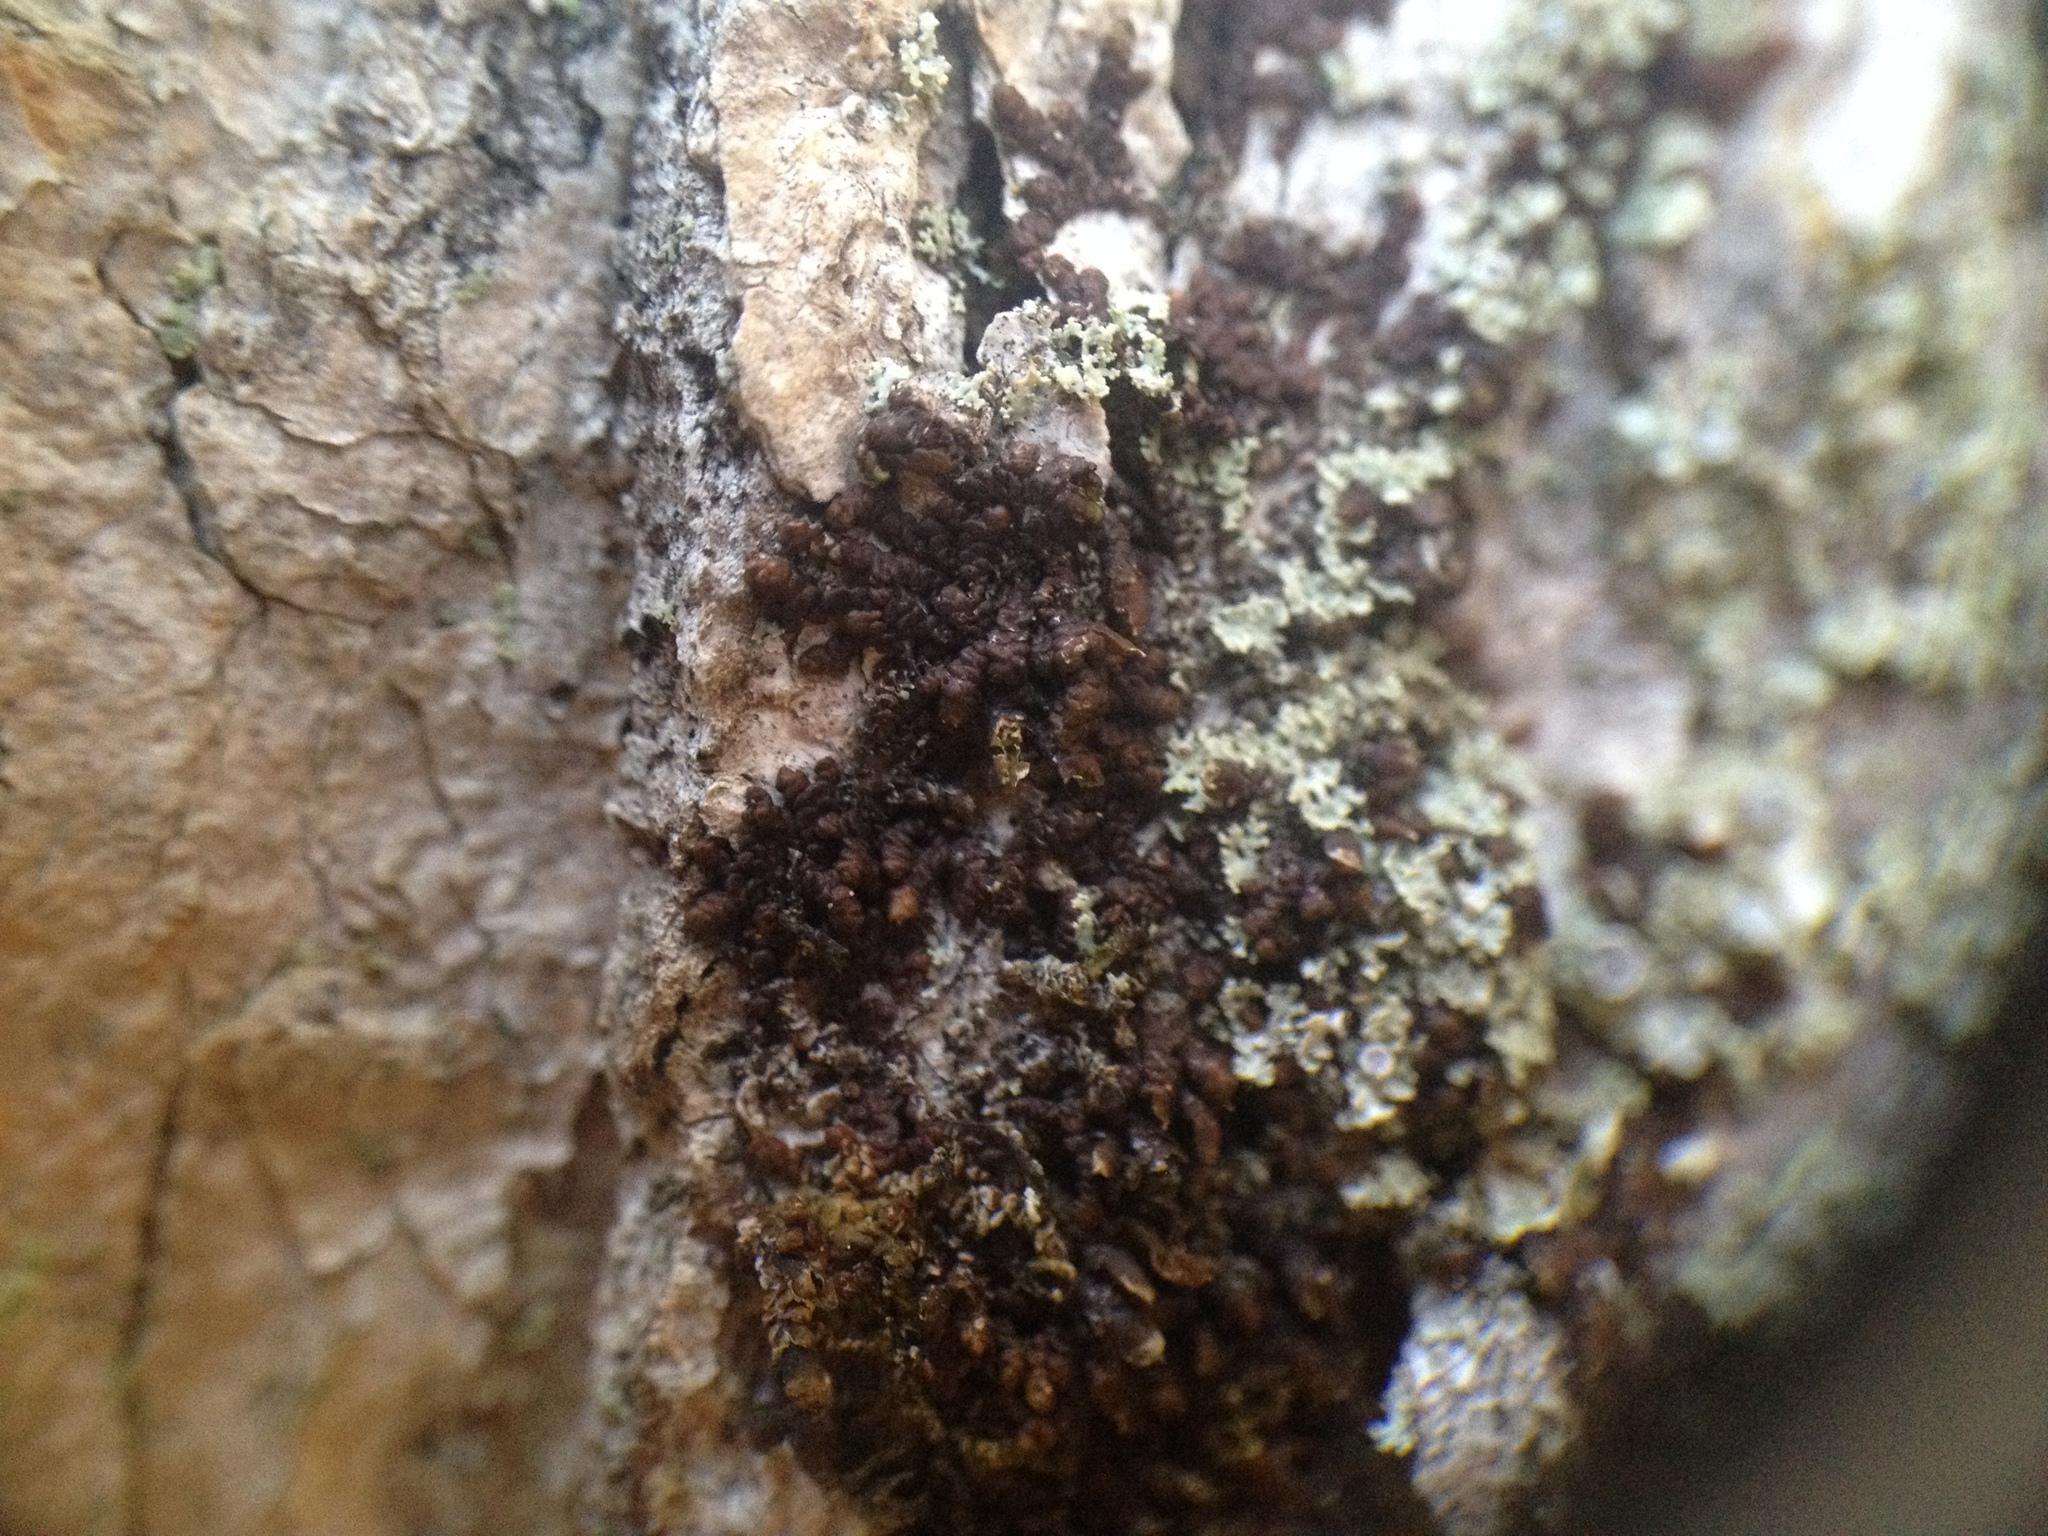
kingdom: Plantae
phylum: Marchantiophyta
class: Jungermanniopsida
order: Porellales
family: Frullaniaceae
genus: Frullania
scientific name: Frullania oakesiana
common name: Oakes  scalewort
